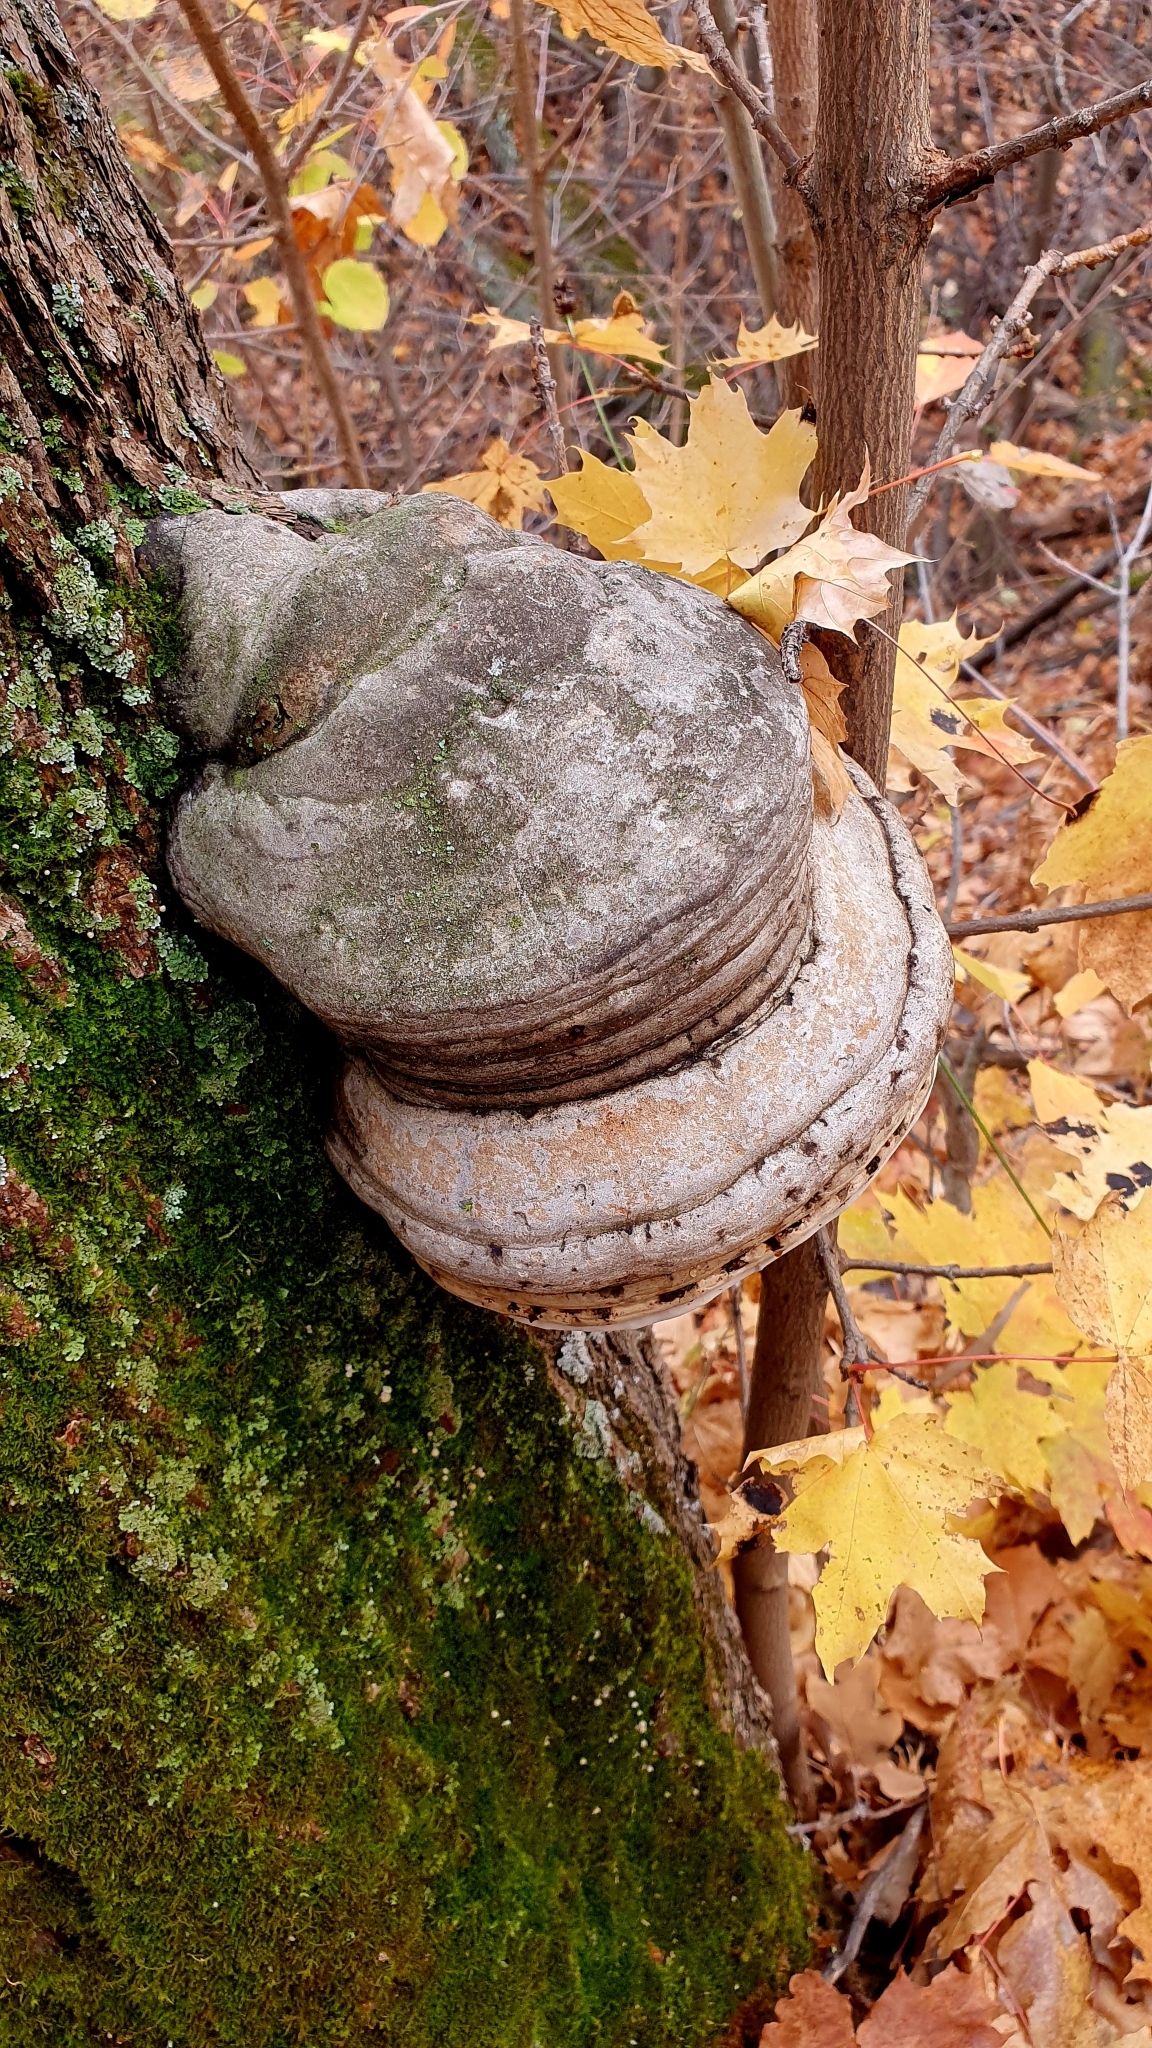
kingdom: Fungi
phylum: Basidiomycota
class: Agaricomycetes
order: Polyporales
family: Polyporaceae
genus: Fomes
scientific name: Fomes fomentarius
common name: Hoof fungus
